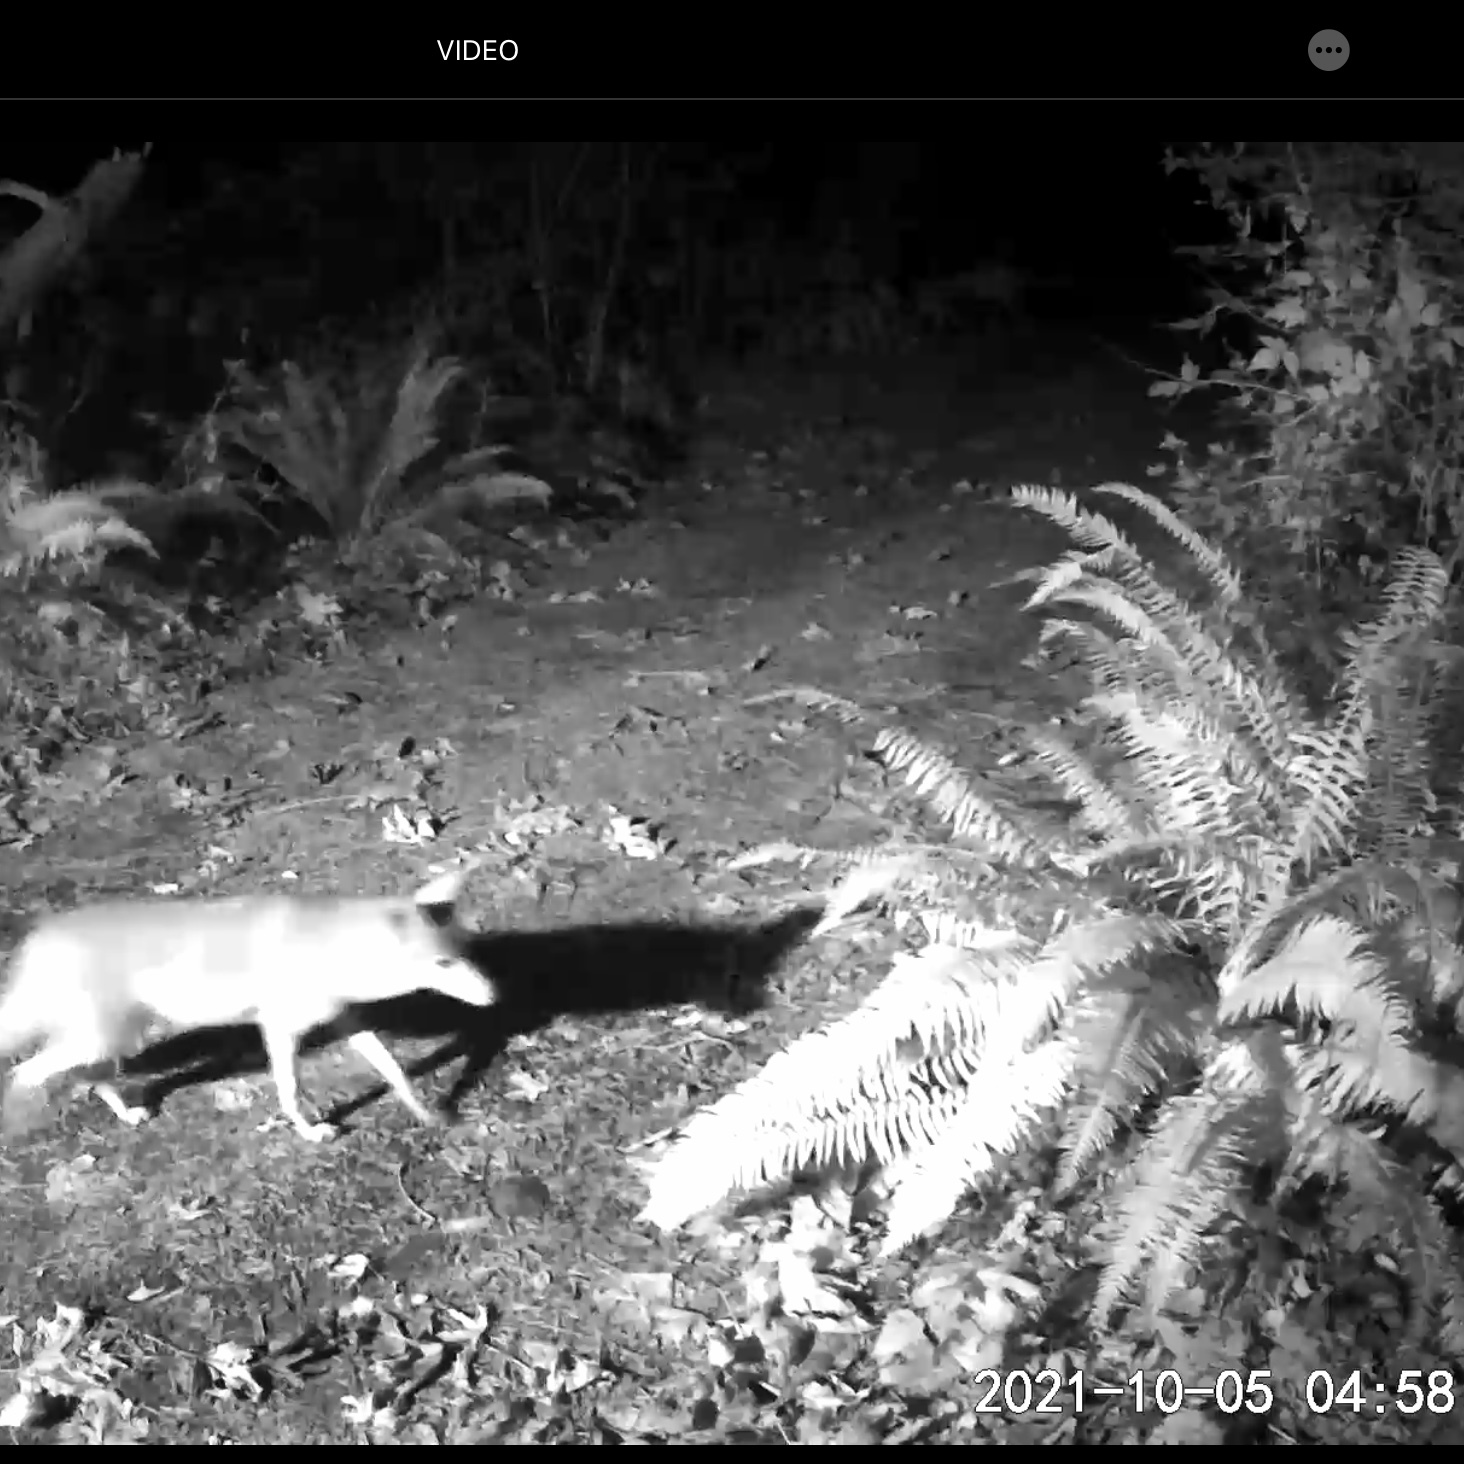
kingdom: Animalia
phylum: Chordata
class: Mammalia
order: Carnivora
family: Procyonidae
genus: Procyon
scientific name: Procyon lotor
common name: Raccoon
